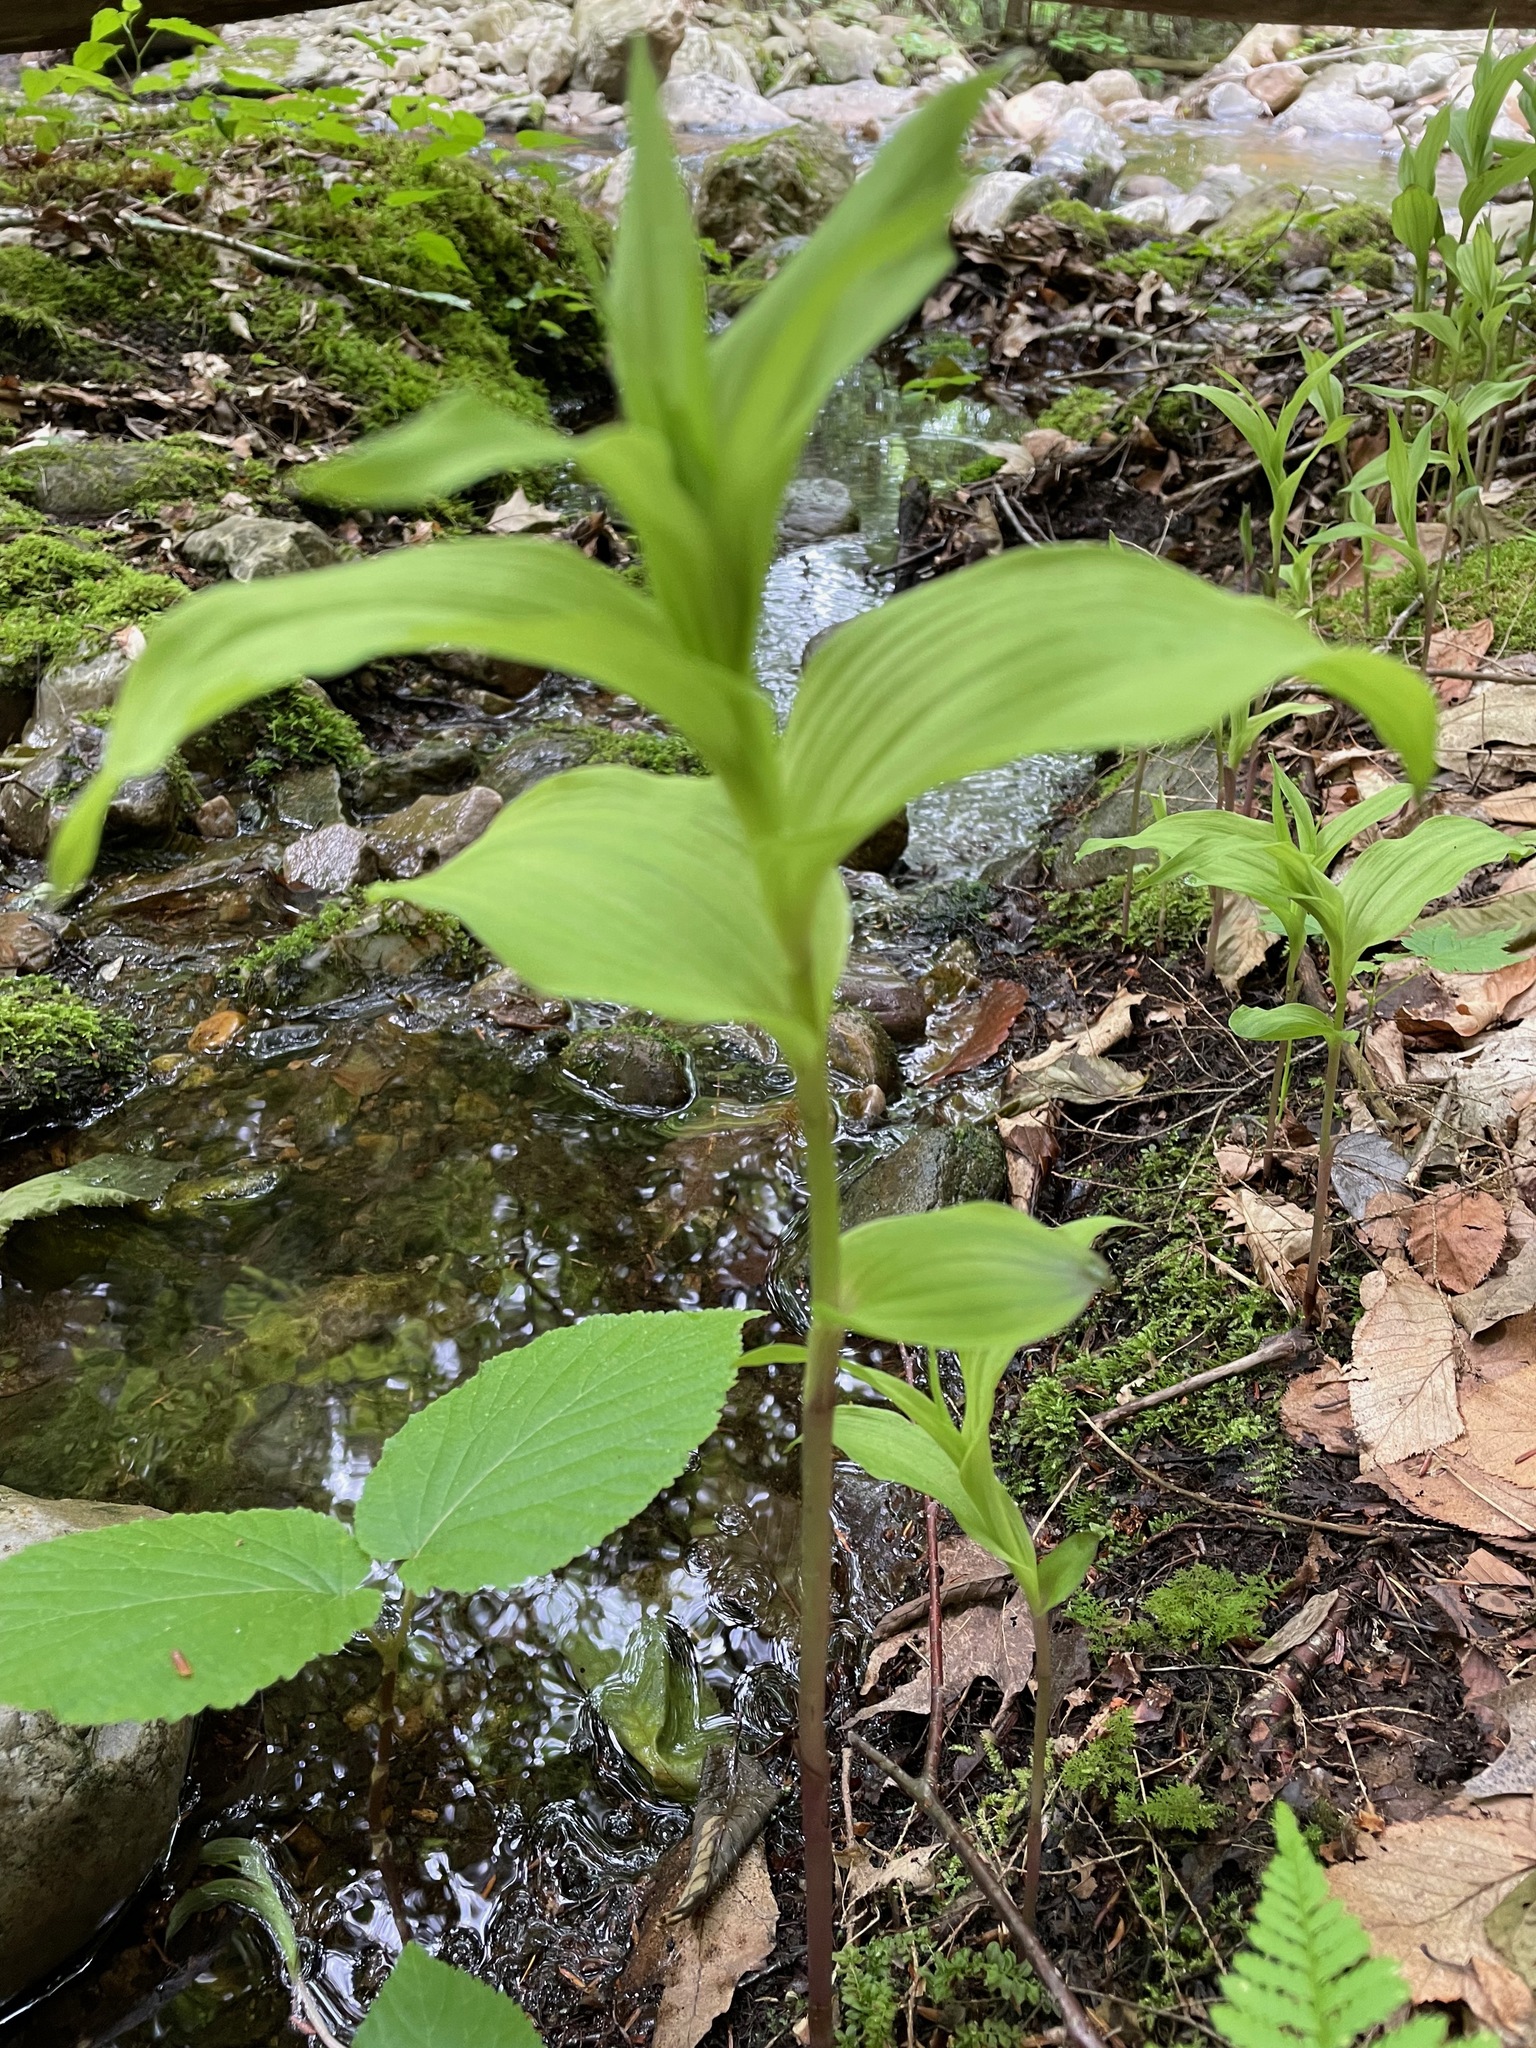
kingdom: Plantae
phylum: Tracheophyta
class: Liliopsida
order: Asparagales
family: Orchidaceae
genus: Epipactis
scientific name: Epipactis helleborine
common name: Broad-leaved helleborine
